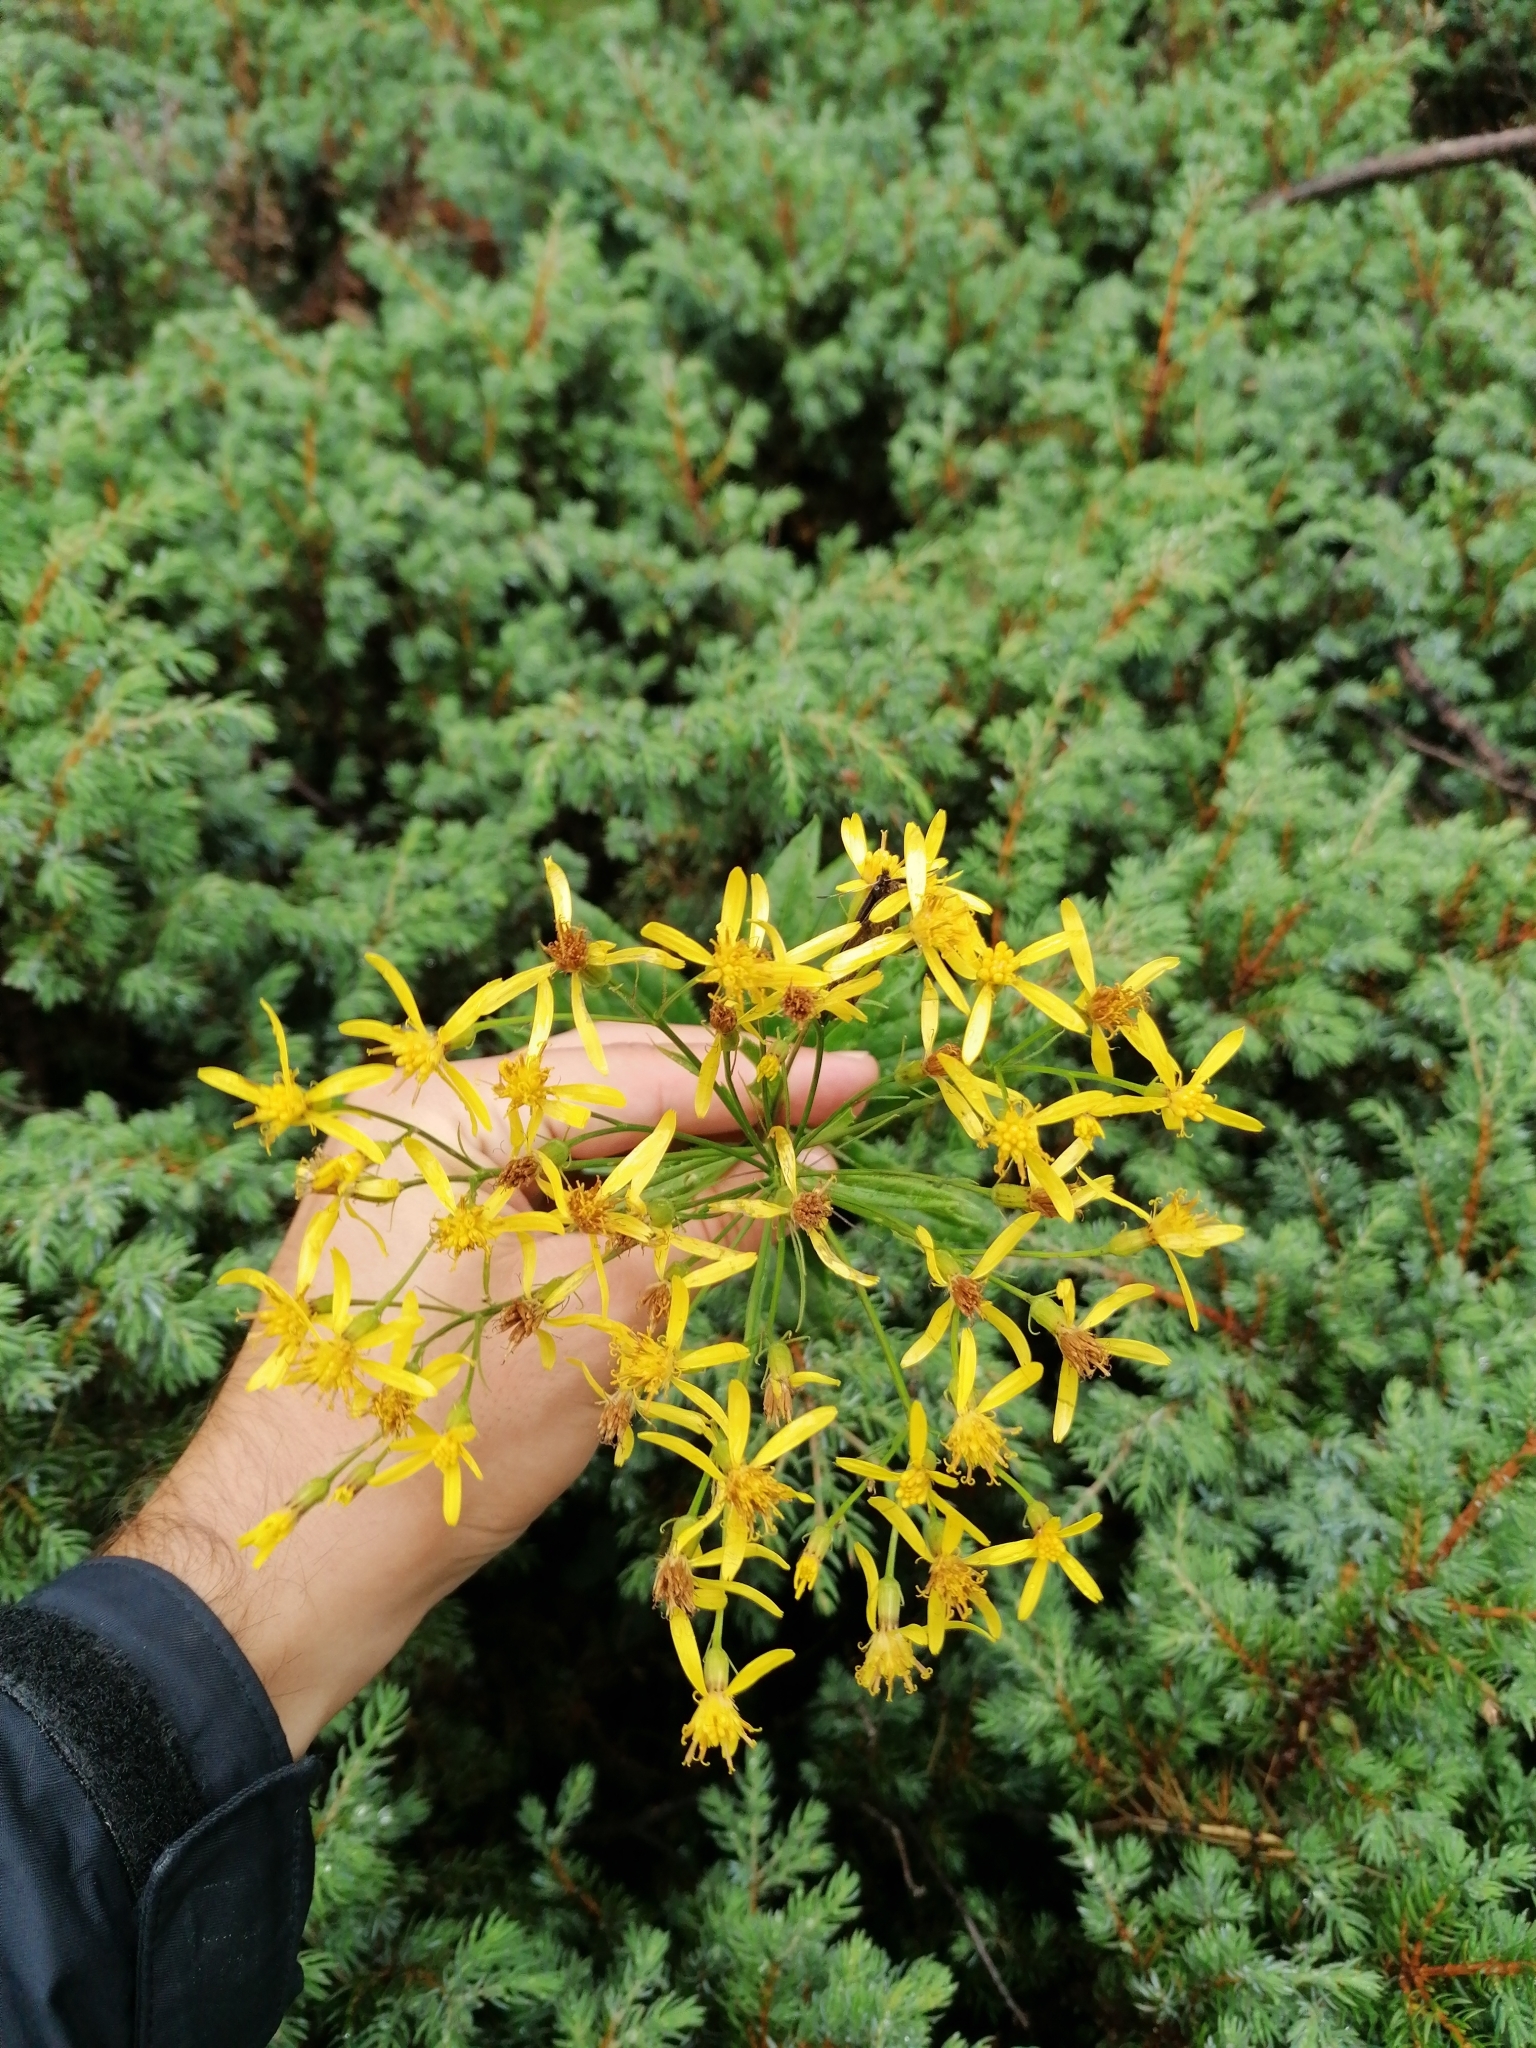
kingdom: Plantae
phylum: Tracheophyta
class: Magnoliopsida
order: Asterales
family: Asteraceae
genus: Senecio
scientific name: Senecio ovatus
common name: Wood ragwort
